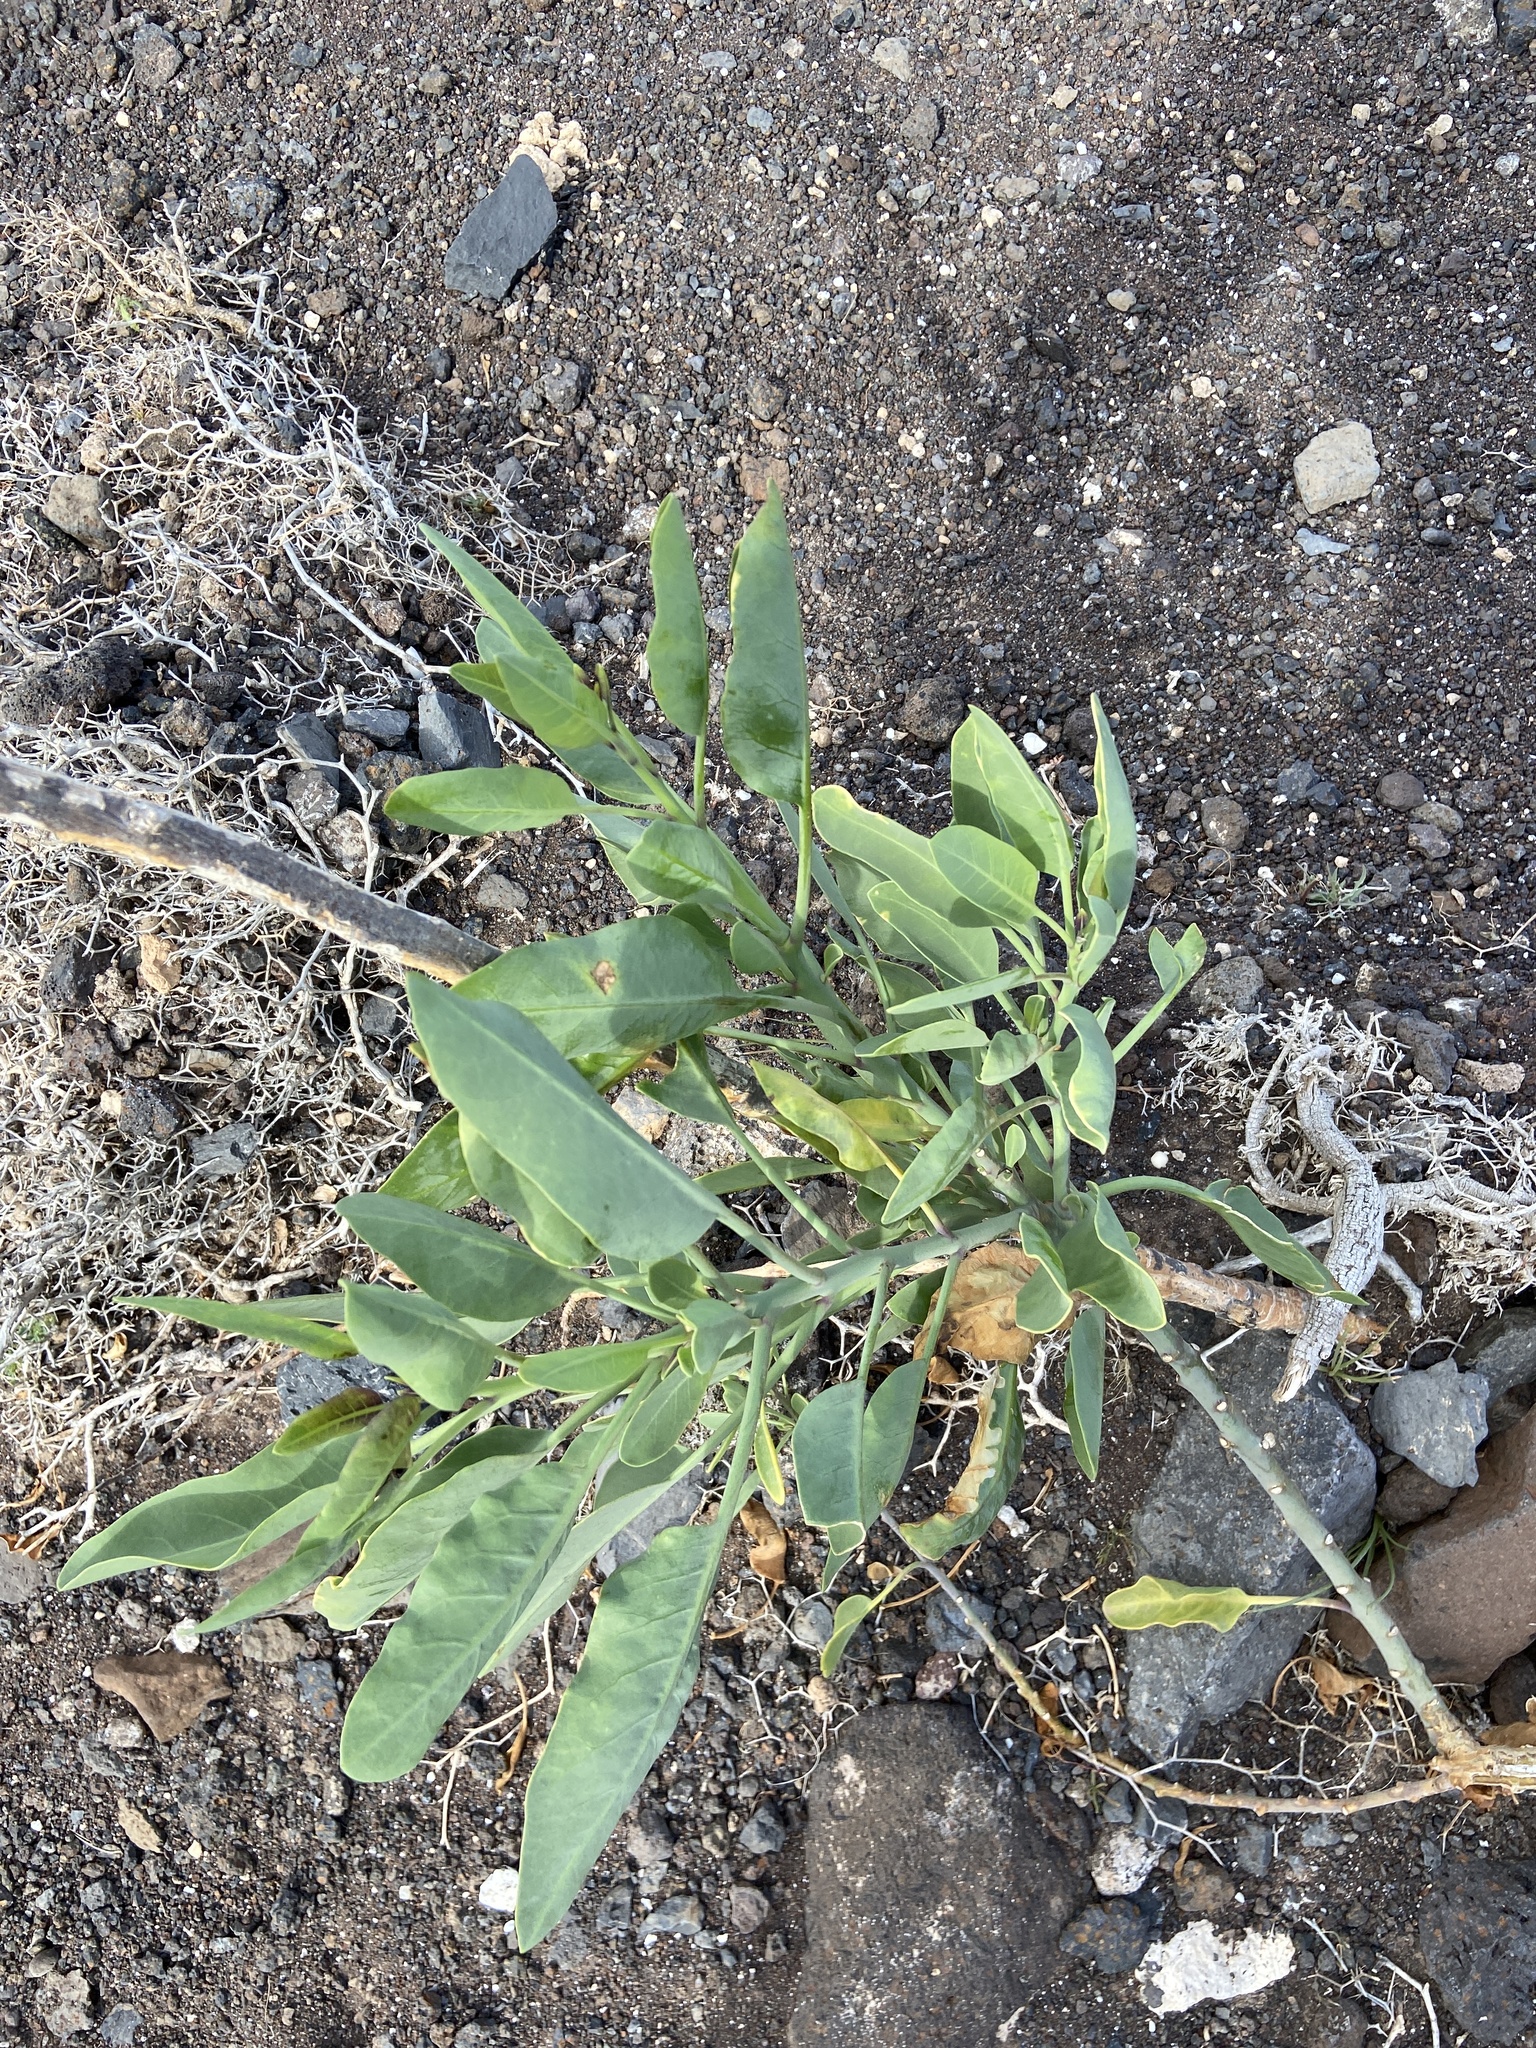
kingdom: Plantae
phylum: Tracheophyta
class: Magnoliopsida
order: Solanales
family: Solanaceae
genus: Nicotiana
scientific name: Nicotiana glauca
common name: Tree tobacco
